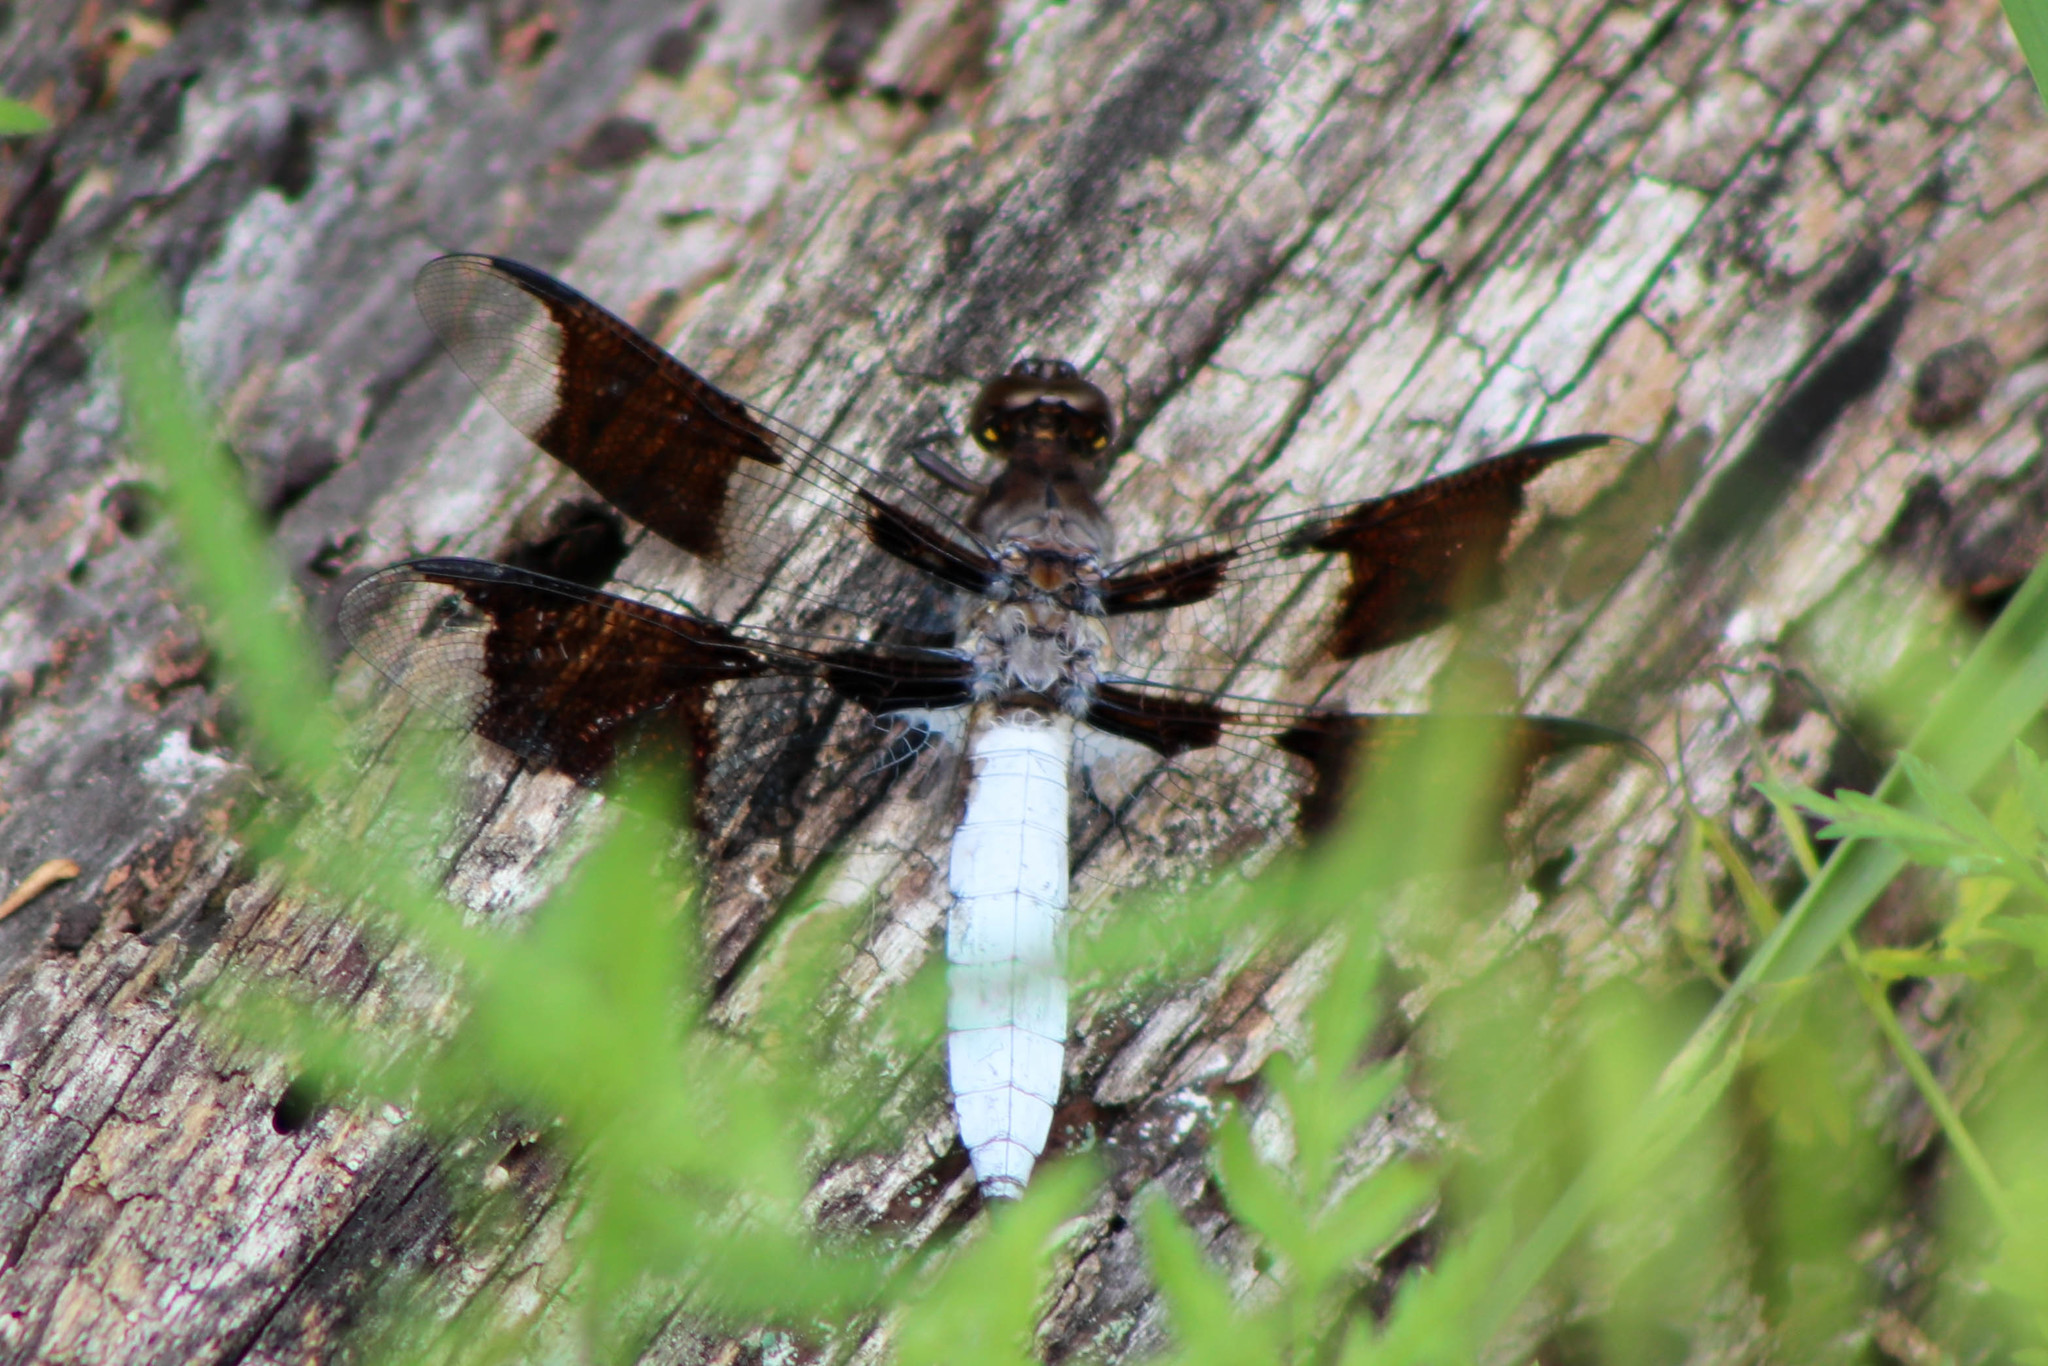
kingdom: Animalia
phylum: Arthropoda
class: Insecta
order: Odonata
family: Libellulidae
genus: Plathemis
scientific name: Plathemis lydia
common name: Common whitetail
